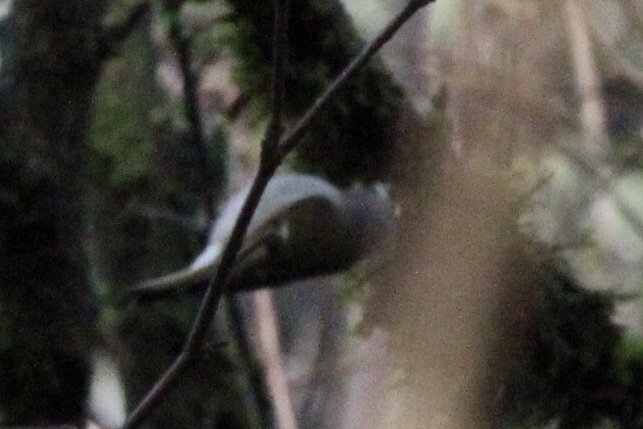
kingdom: Animalia
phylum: Chordata
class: Aves
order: Passeriformes
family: Regulidae
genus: Regulus
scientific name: Regulus satrapa
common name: Golden-crowned kinglet
